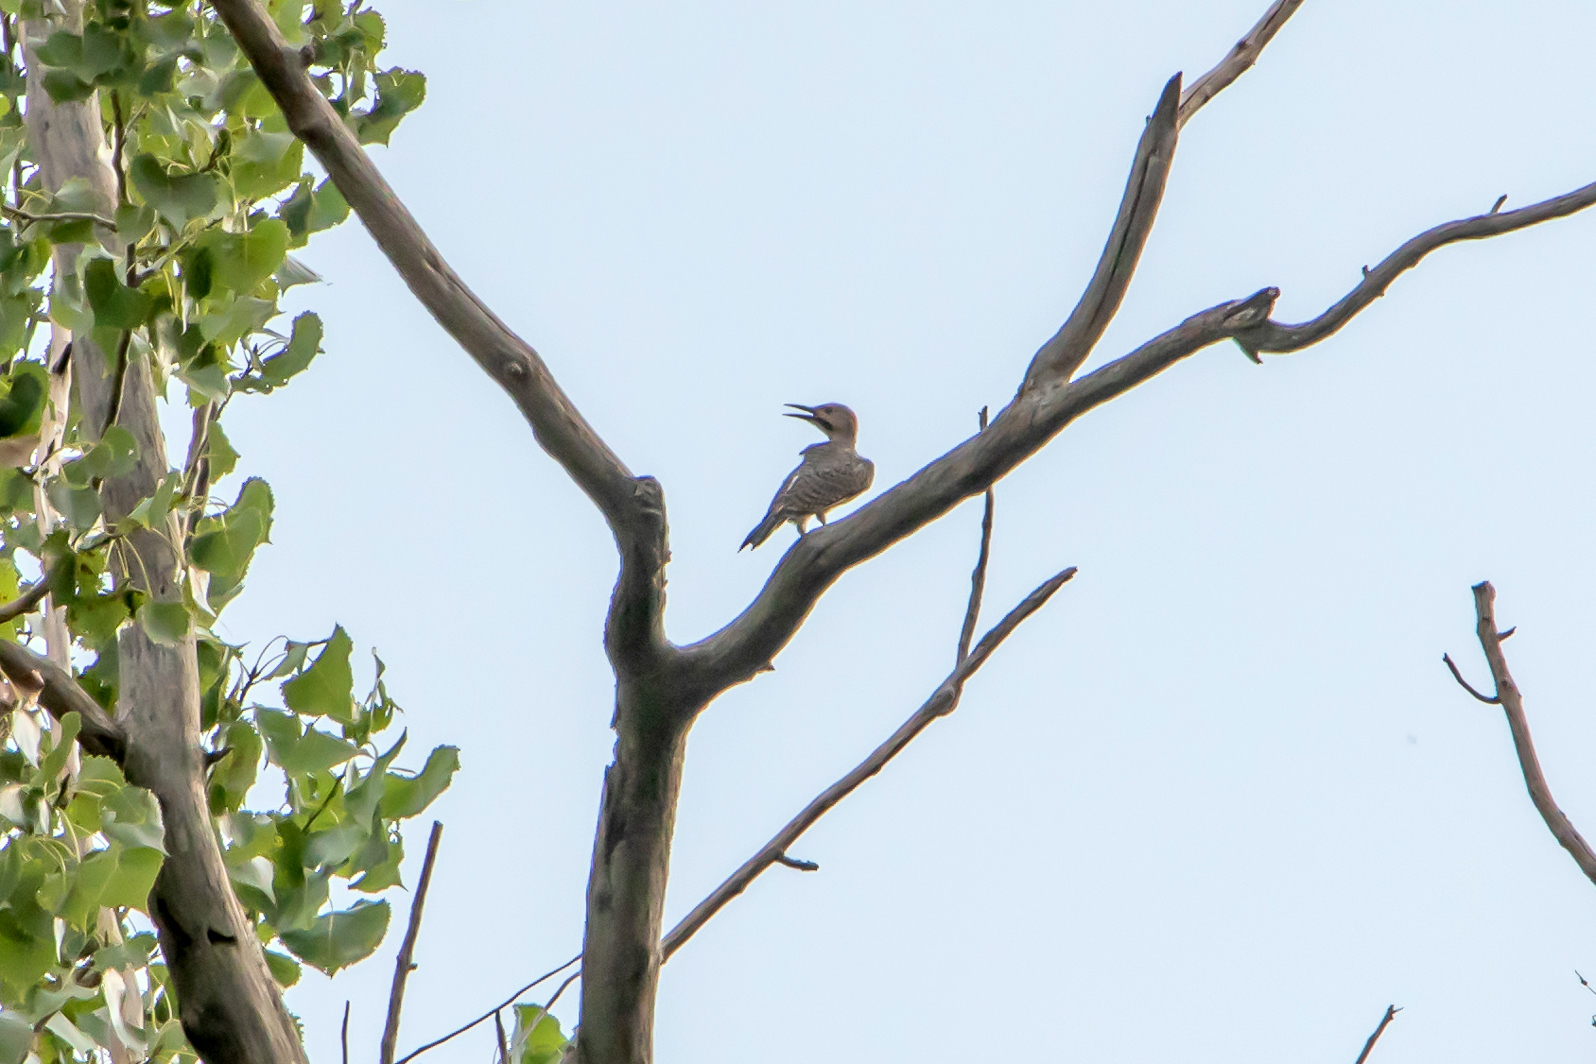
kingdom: Animalia
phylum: Chordata
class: Aves
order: Piciformes
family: Picidae
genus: Colaptes
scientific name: Colaptes auratus
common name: Northern flicker
